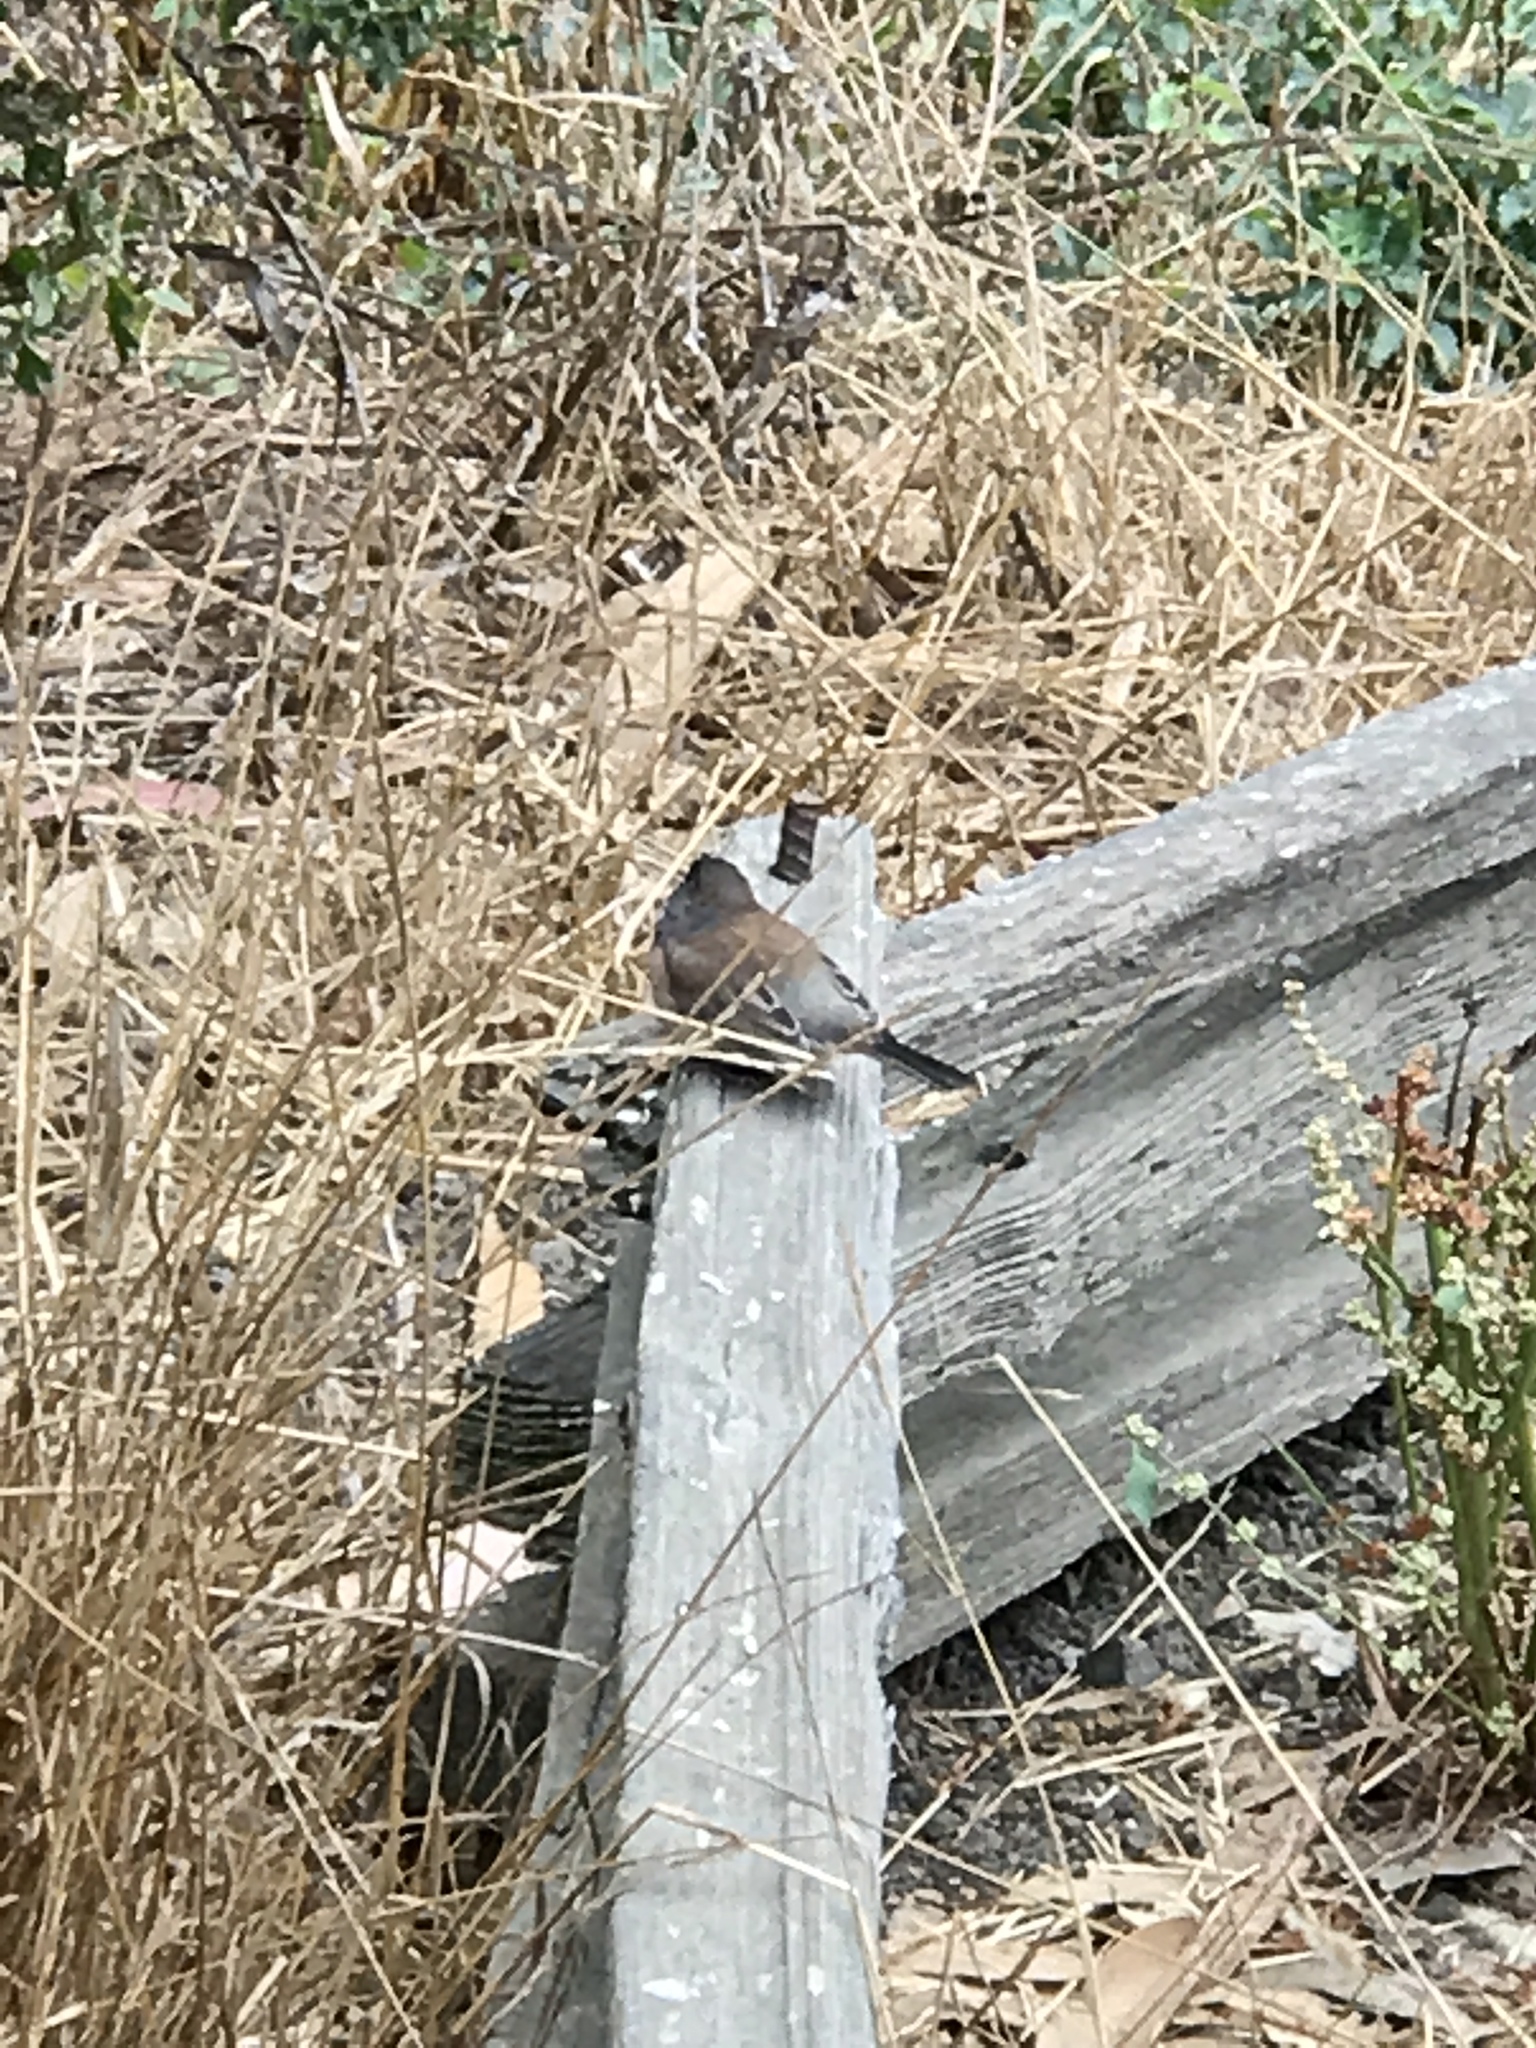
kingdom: Animalia
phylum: Chordata
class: Aves
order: Passeriformes
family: Passerellidae
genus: Junco
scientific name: Junco hyemalis
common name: Dark-eyed junco
